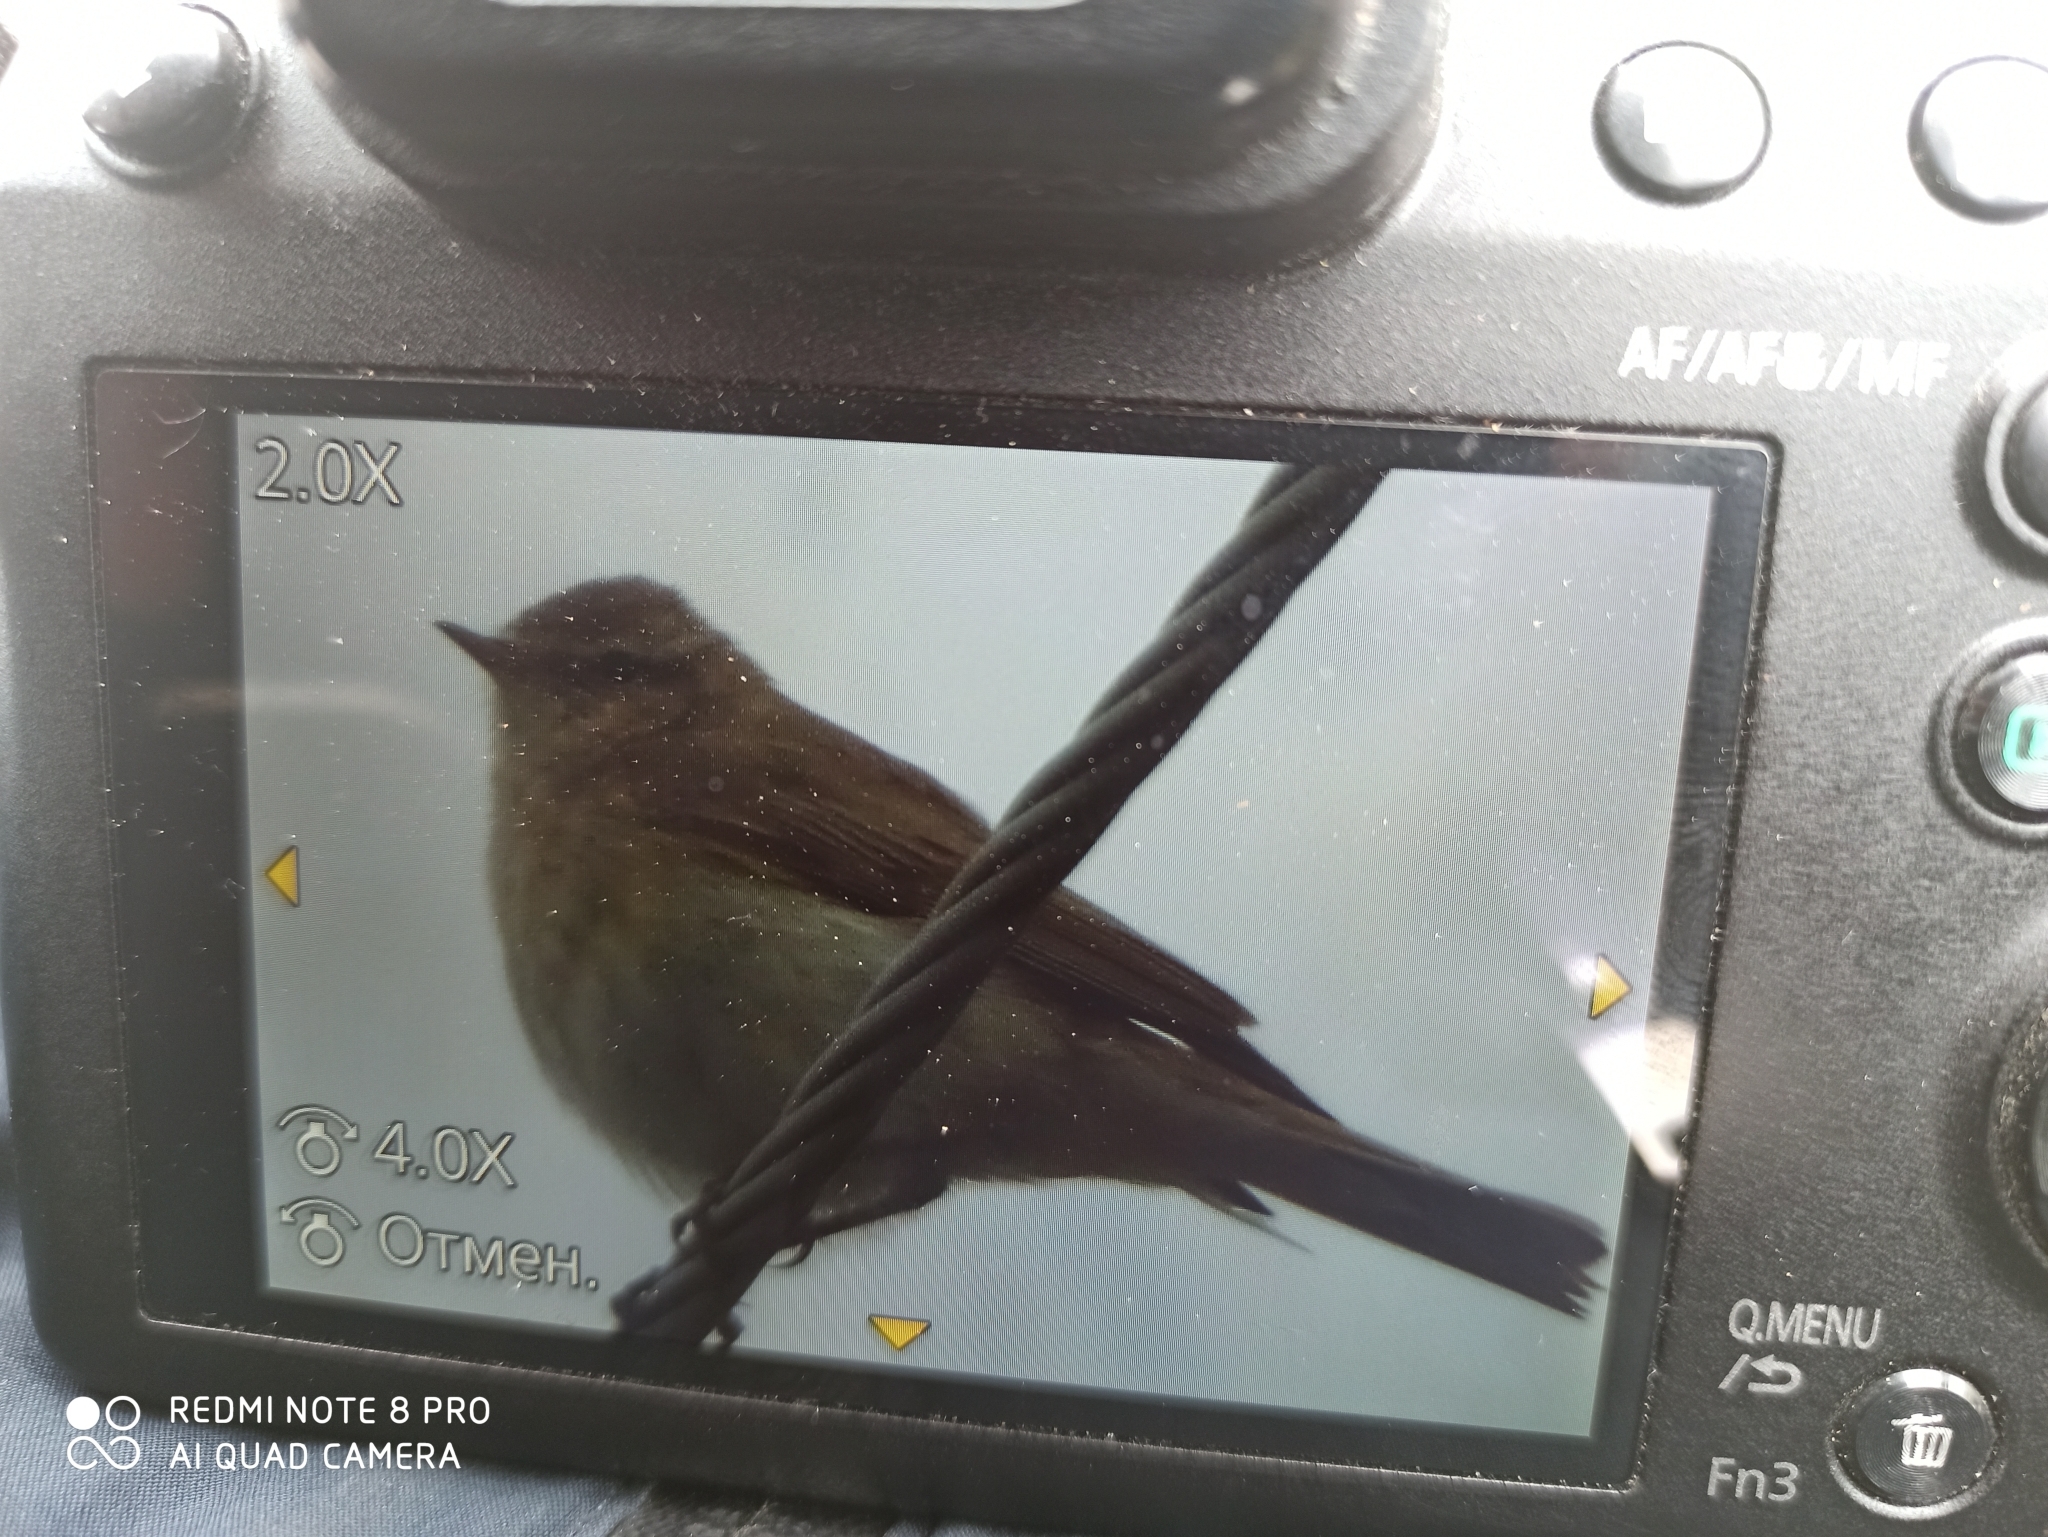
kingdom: Animalia
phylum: Chordata
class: Aves
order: Passeriformes
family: Phylloscopidae
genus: Phylloscopus
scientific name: Phylloscopus collybita
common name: Common chiffchaff
